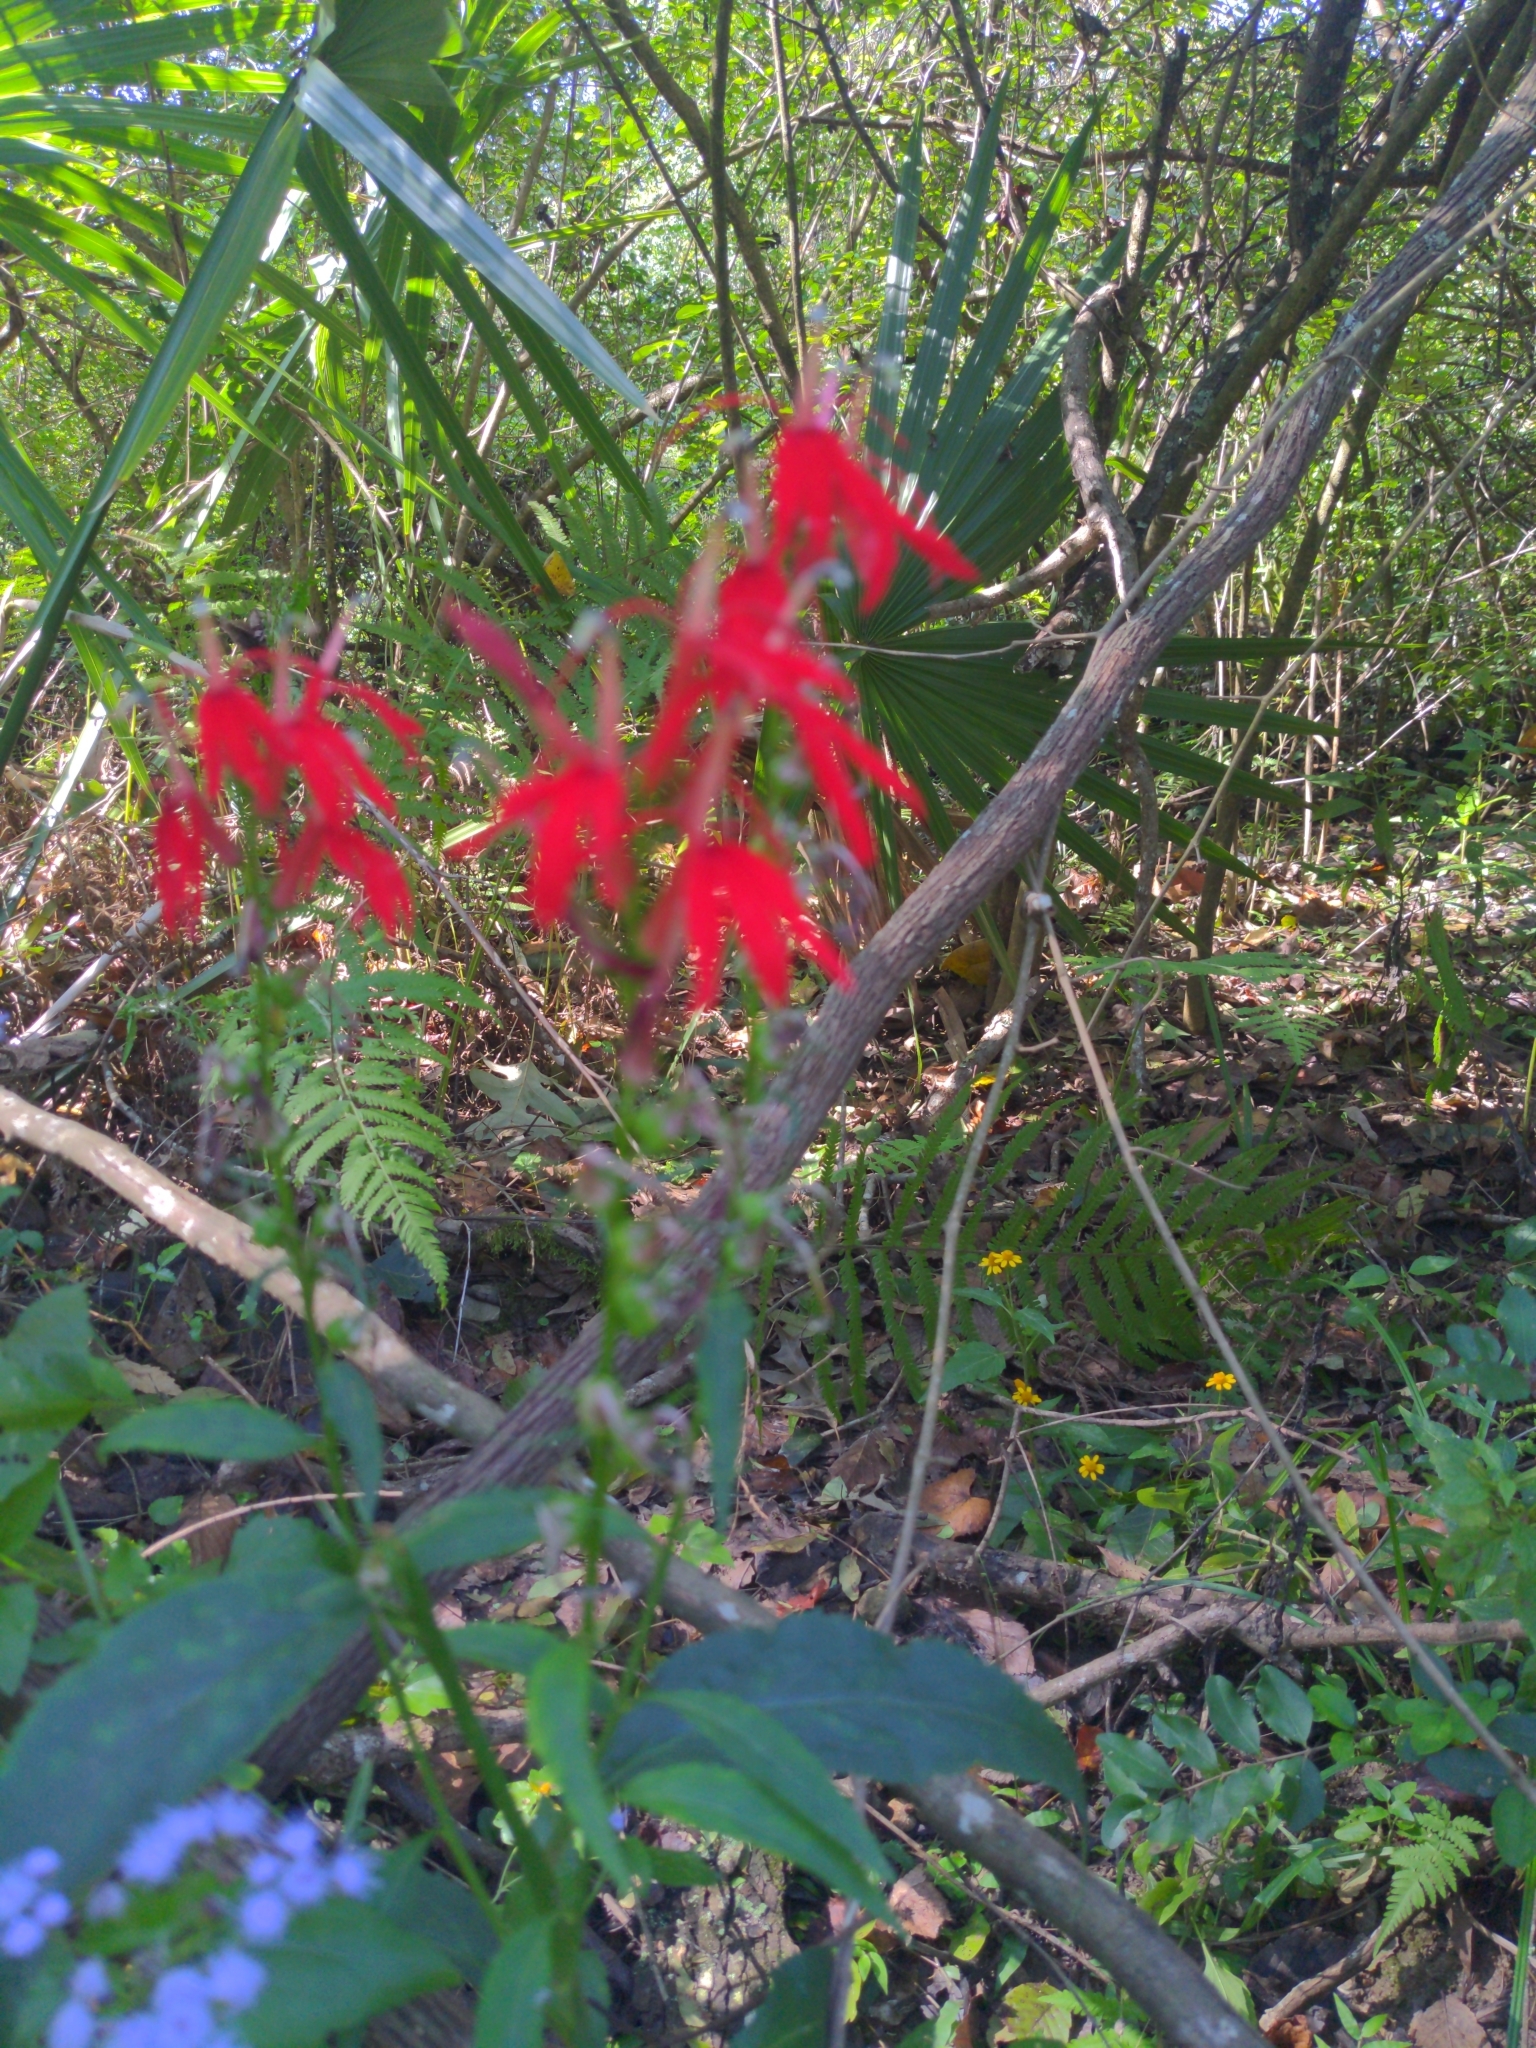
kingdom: Plantae
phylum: Tracheophyta
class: Magnoliopsida
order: Asterales
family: Campanulaceae
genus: Lobelia
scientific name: Lobelia cardinalis
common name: Cardinal flower
